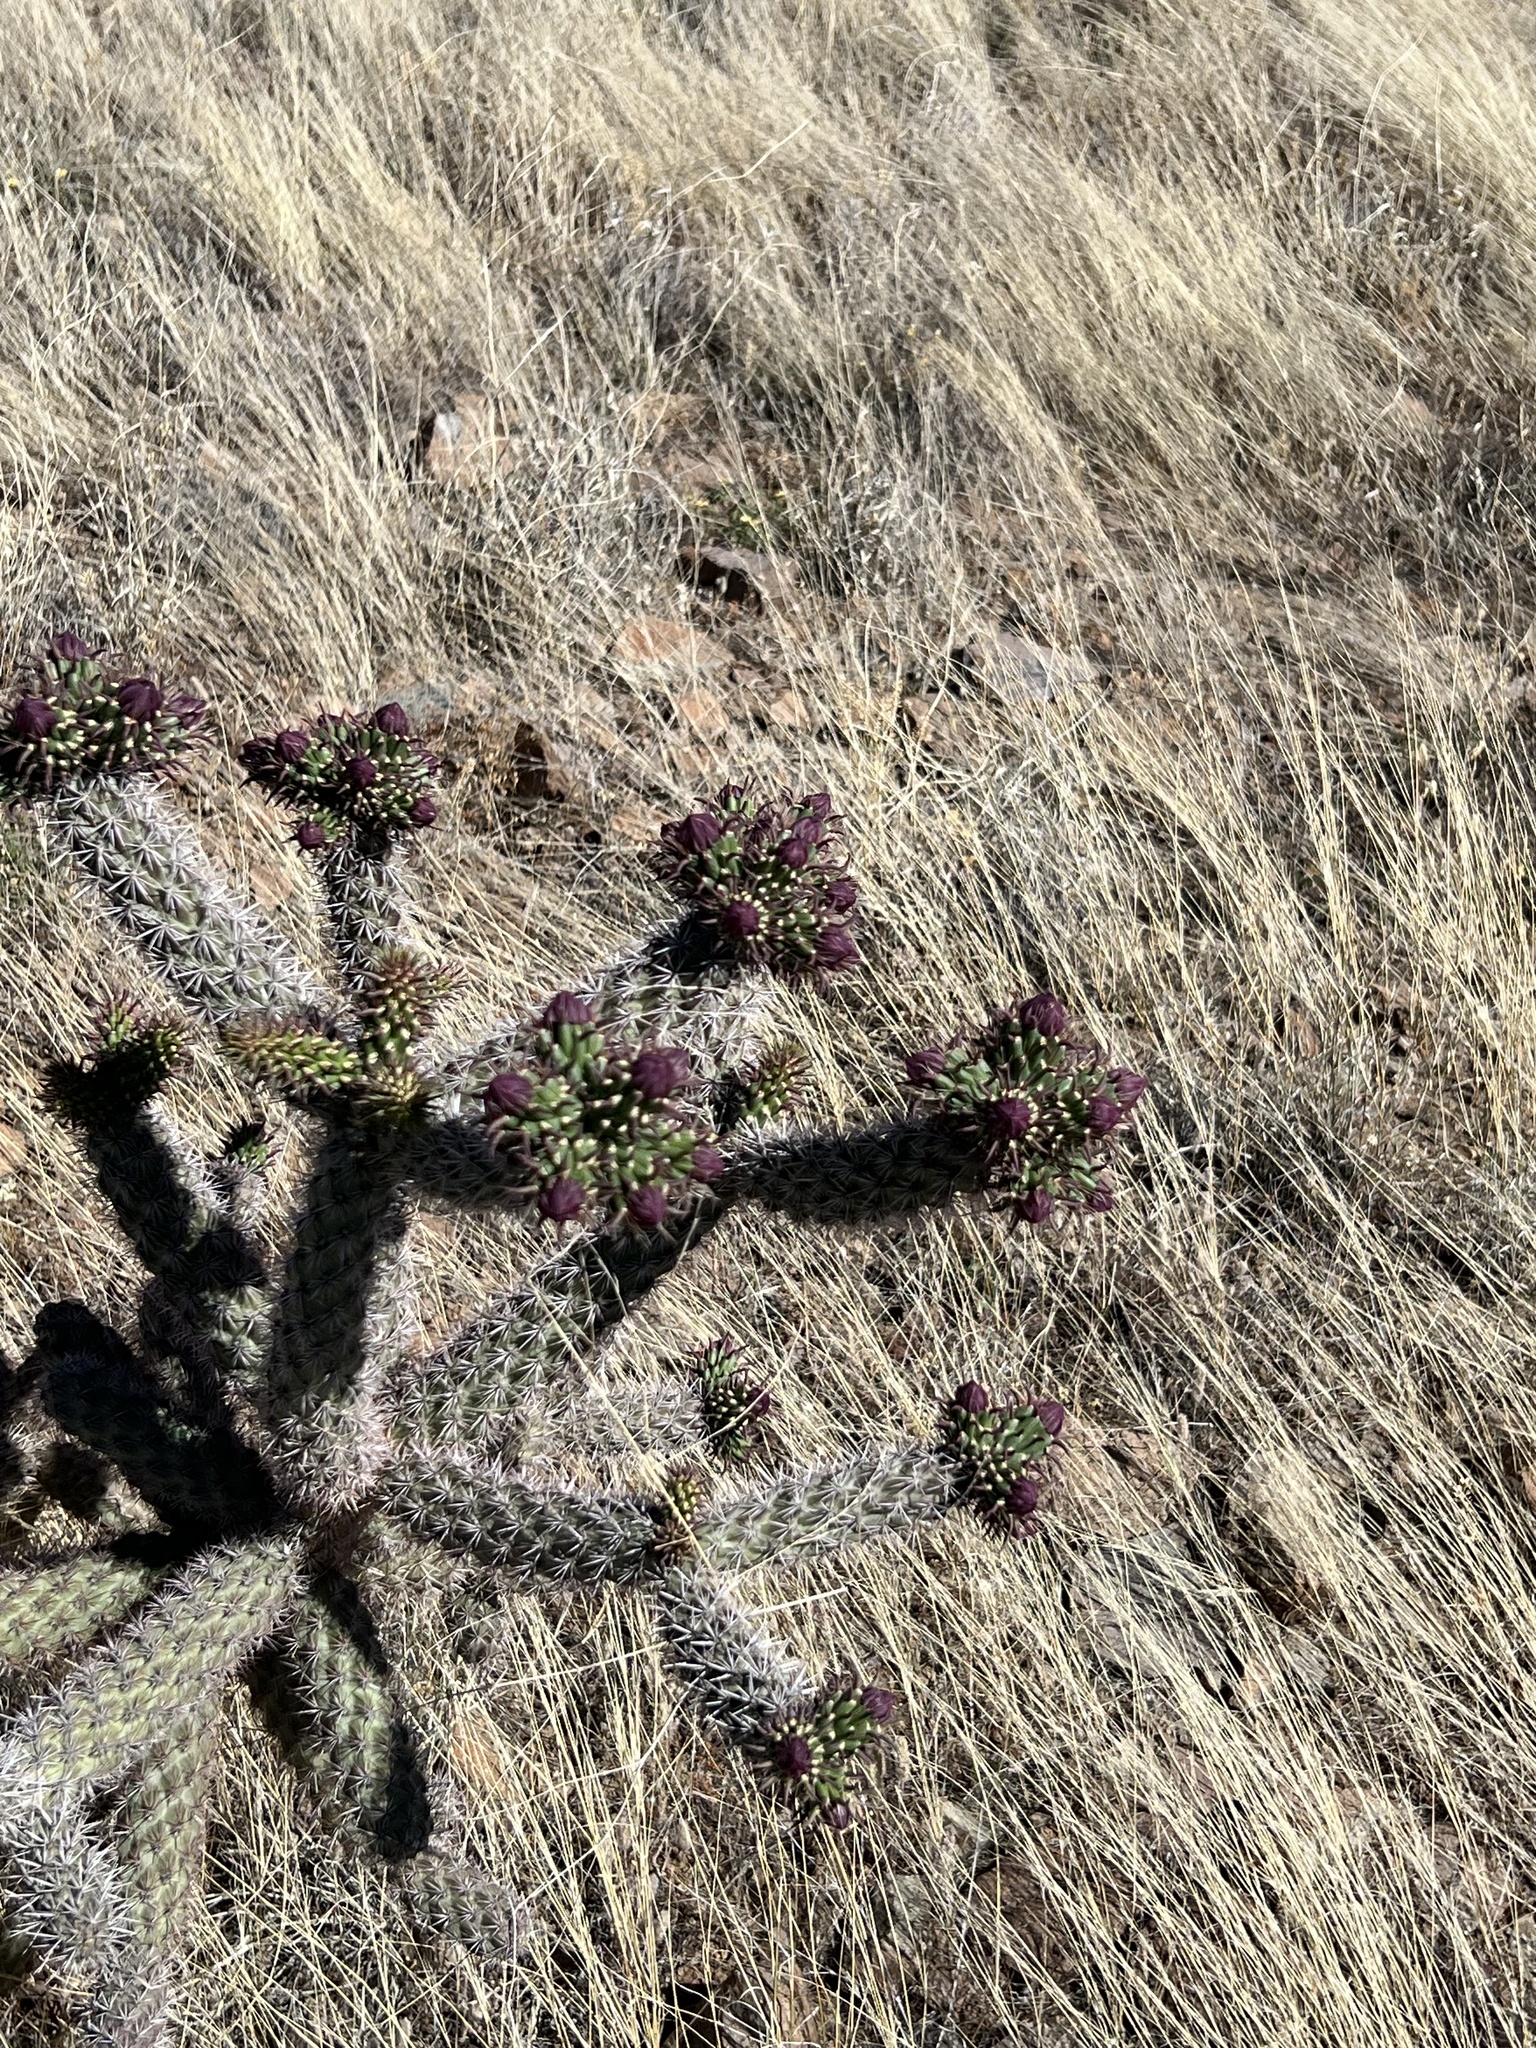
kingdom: Plantae
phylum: Tracheophyta
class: Magnoliopsida
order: Caryophyllales
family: Cactaceae
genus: Cylindropuntia
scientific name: Cylindropuntia imbricata
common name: Candelabrum cactus
